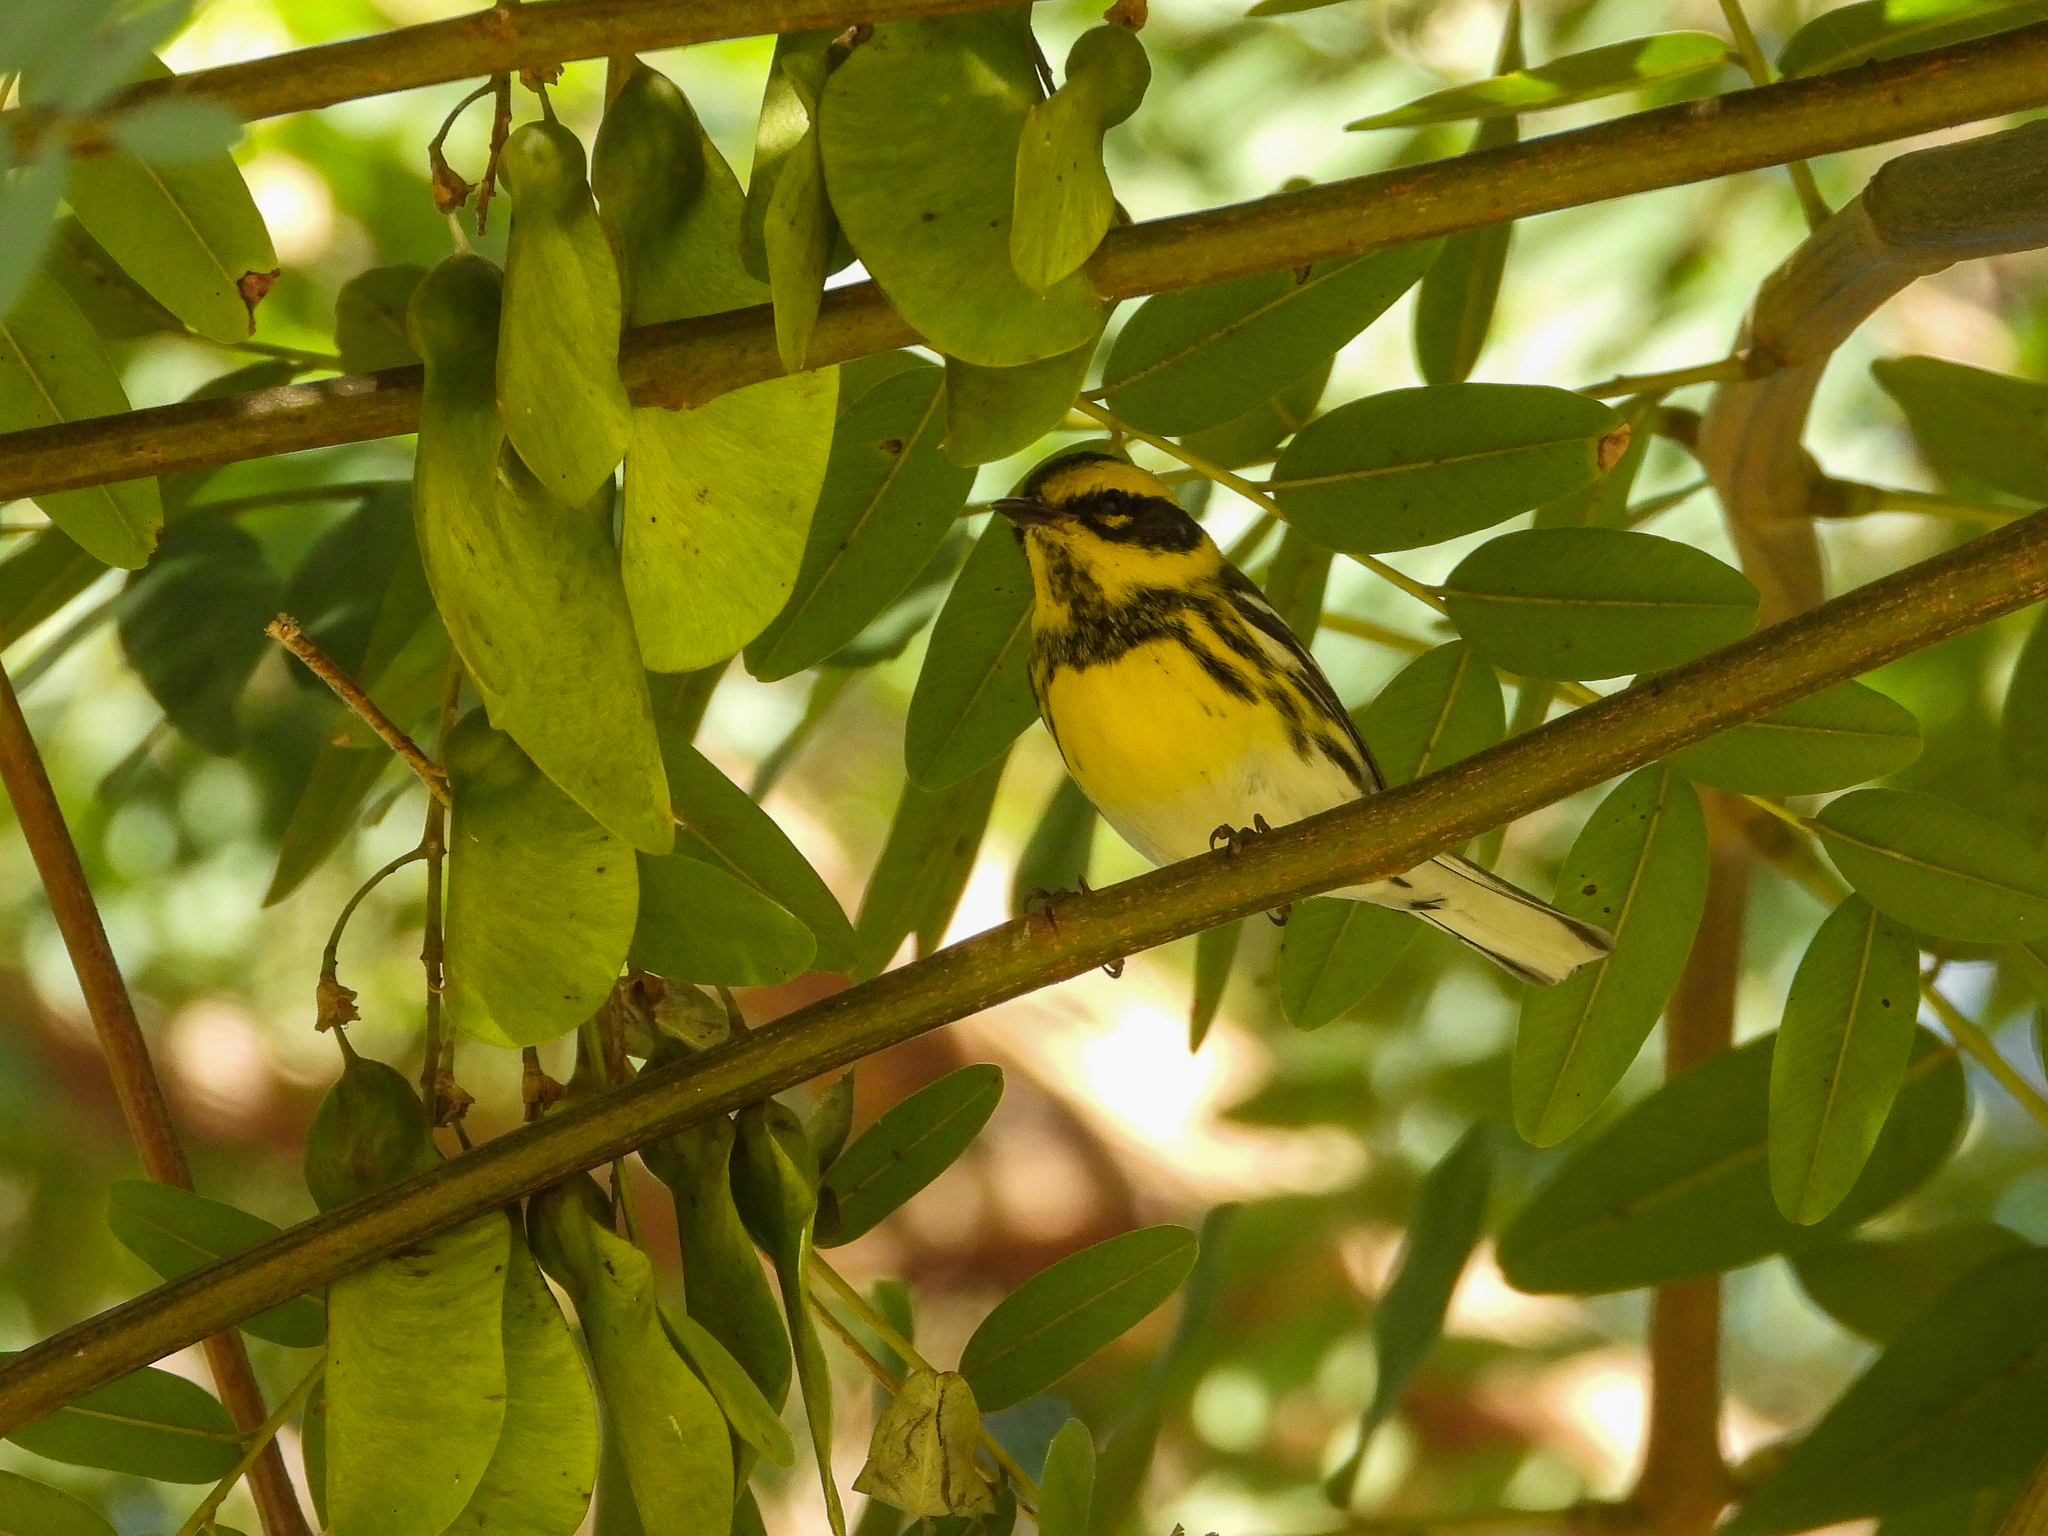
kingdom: Animalia
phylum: Chordata
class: Aves
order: Passeriformes
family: Parulidae
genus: Setophaga
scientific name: Setophaga townsendi
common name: Townsend's warbler
